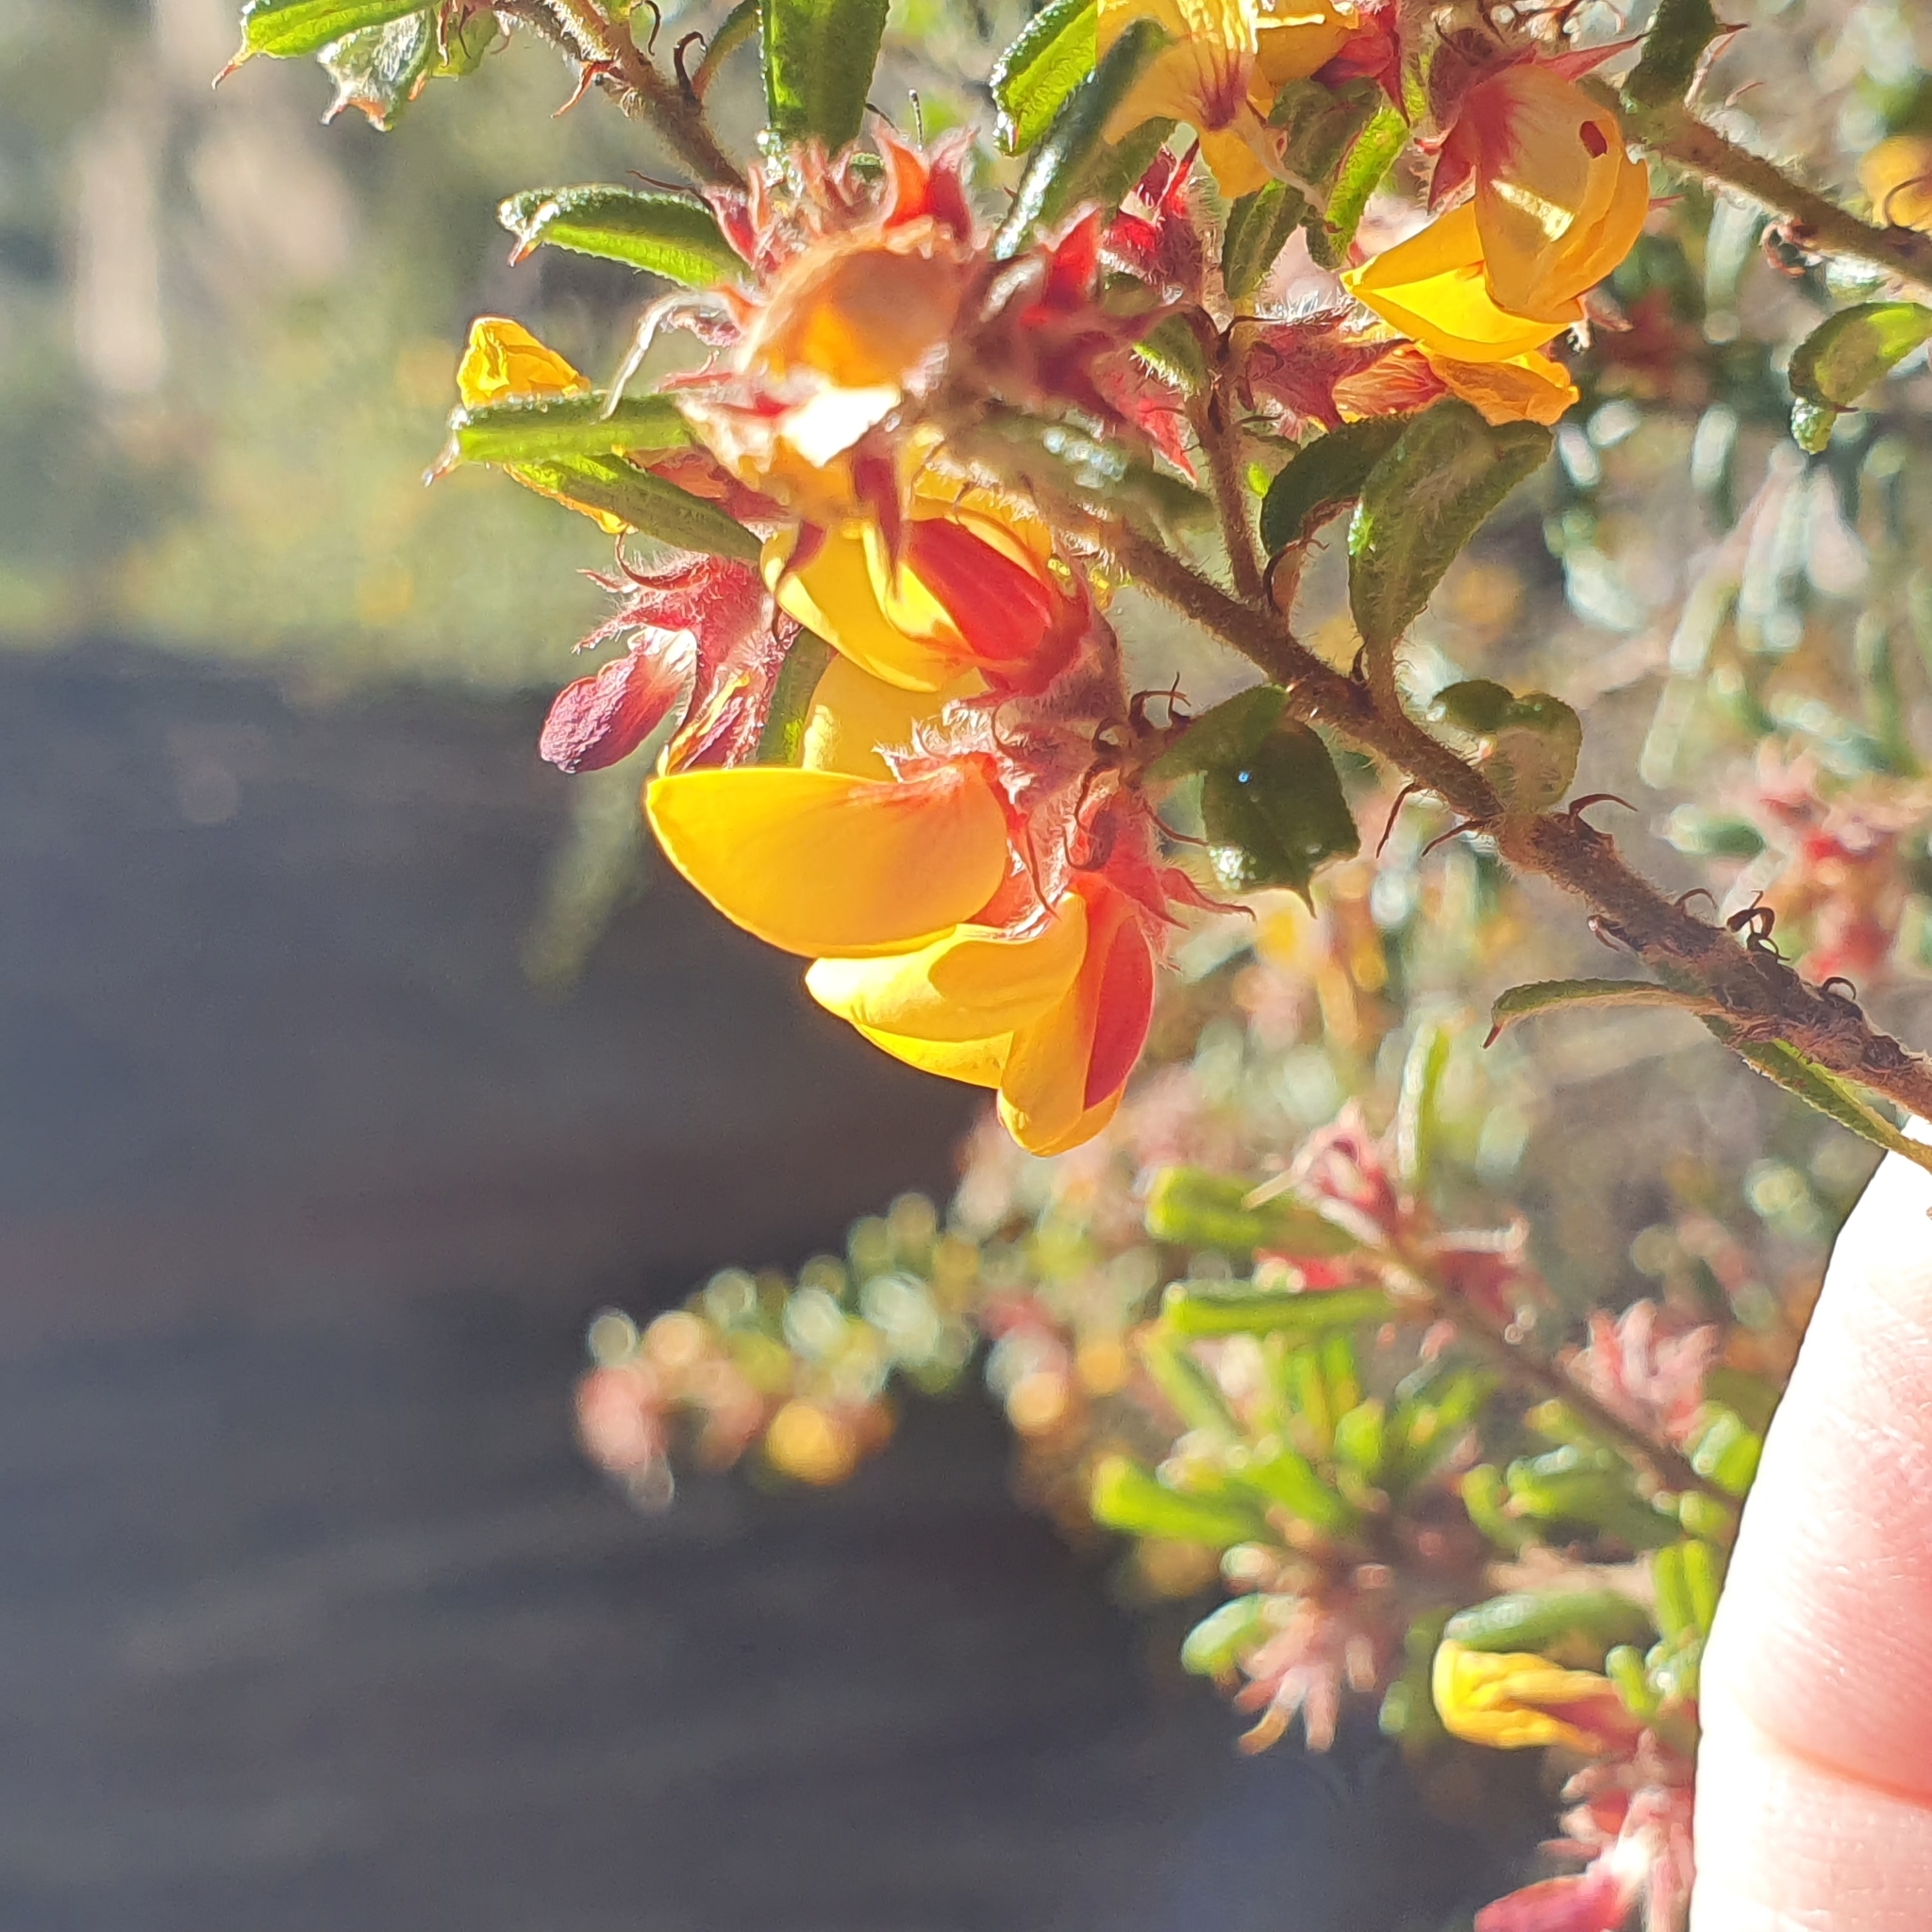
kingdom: Plantae
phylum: Tracheophyta
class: Magnoliopsida
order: Fabales
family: Fabaceae
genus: Pultenaea
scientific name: Pultenaea scabra
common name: Rough bush-pea
